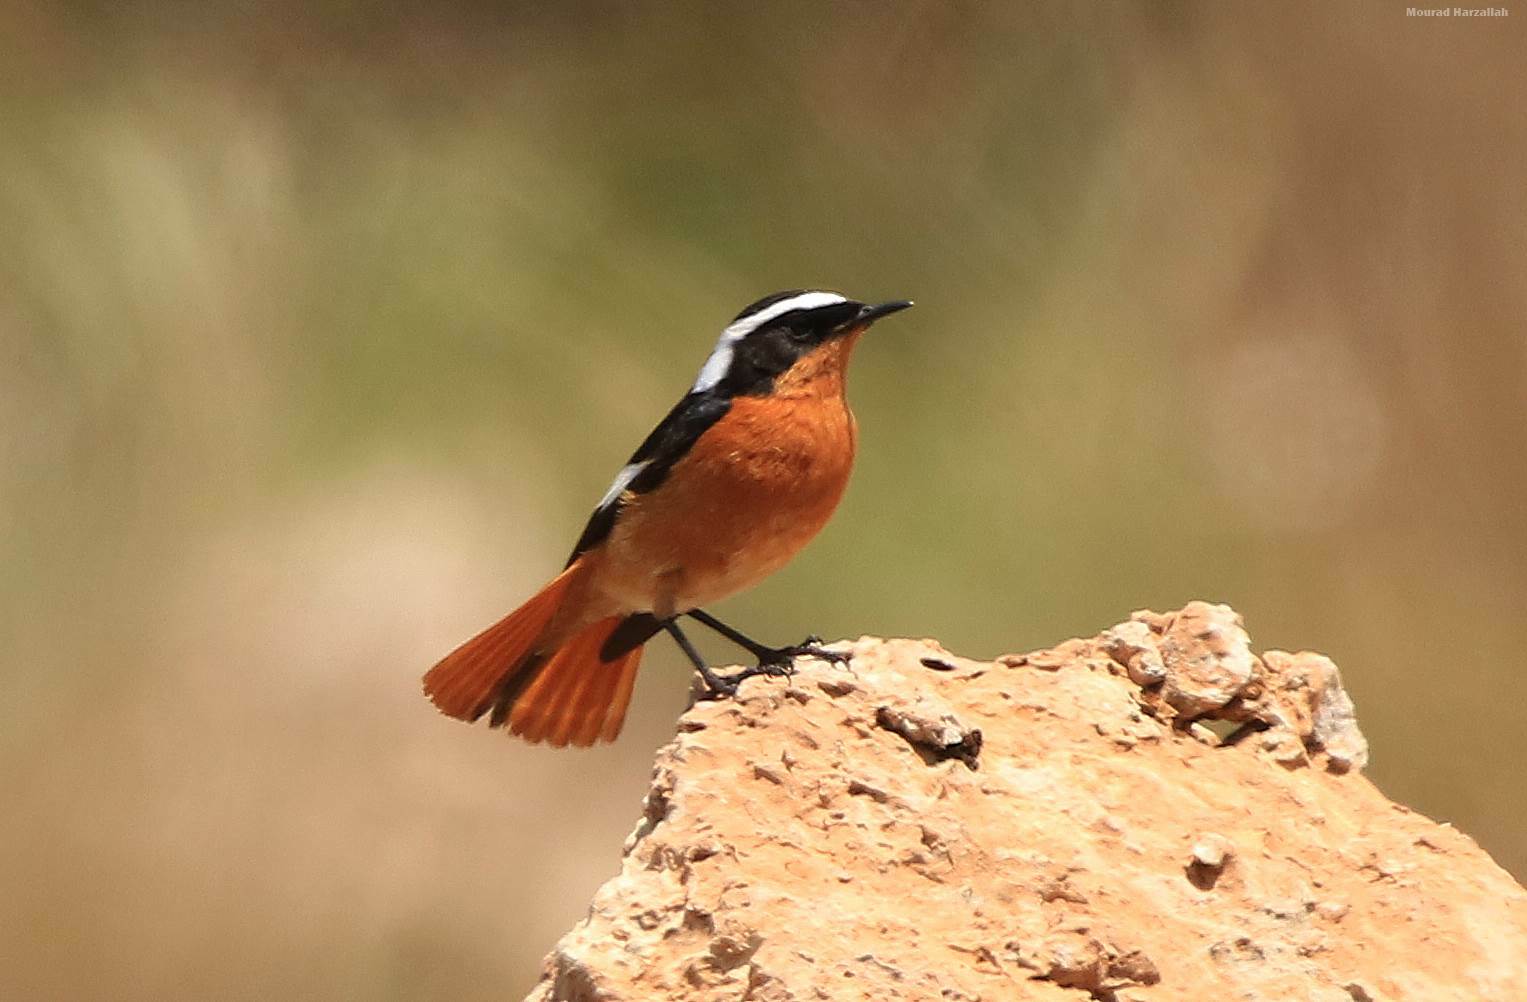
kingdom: Animalia
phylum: Chordata
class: Aves
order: Passeriformes
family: Muscicapidae
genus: Phoenicurus
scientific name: Phoenicurus moussieri
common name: Moussier's redstart
